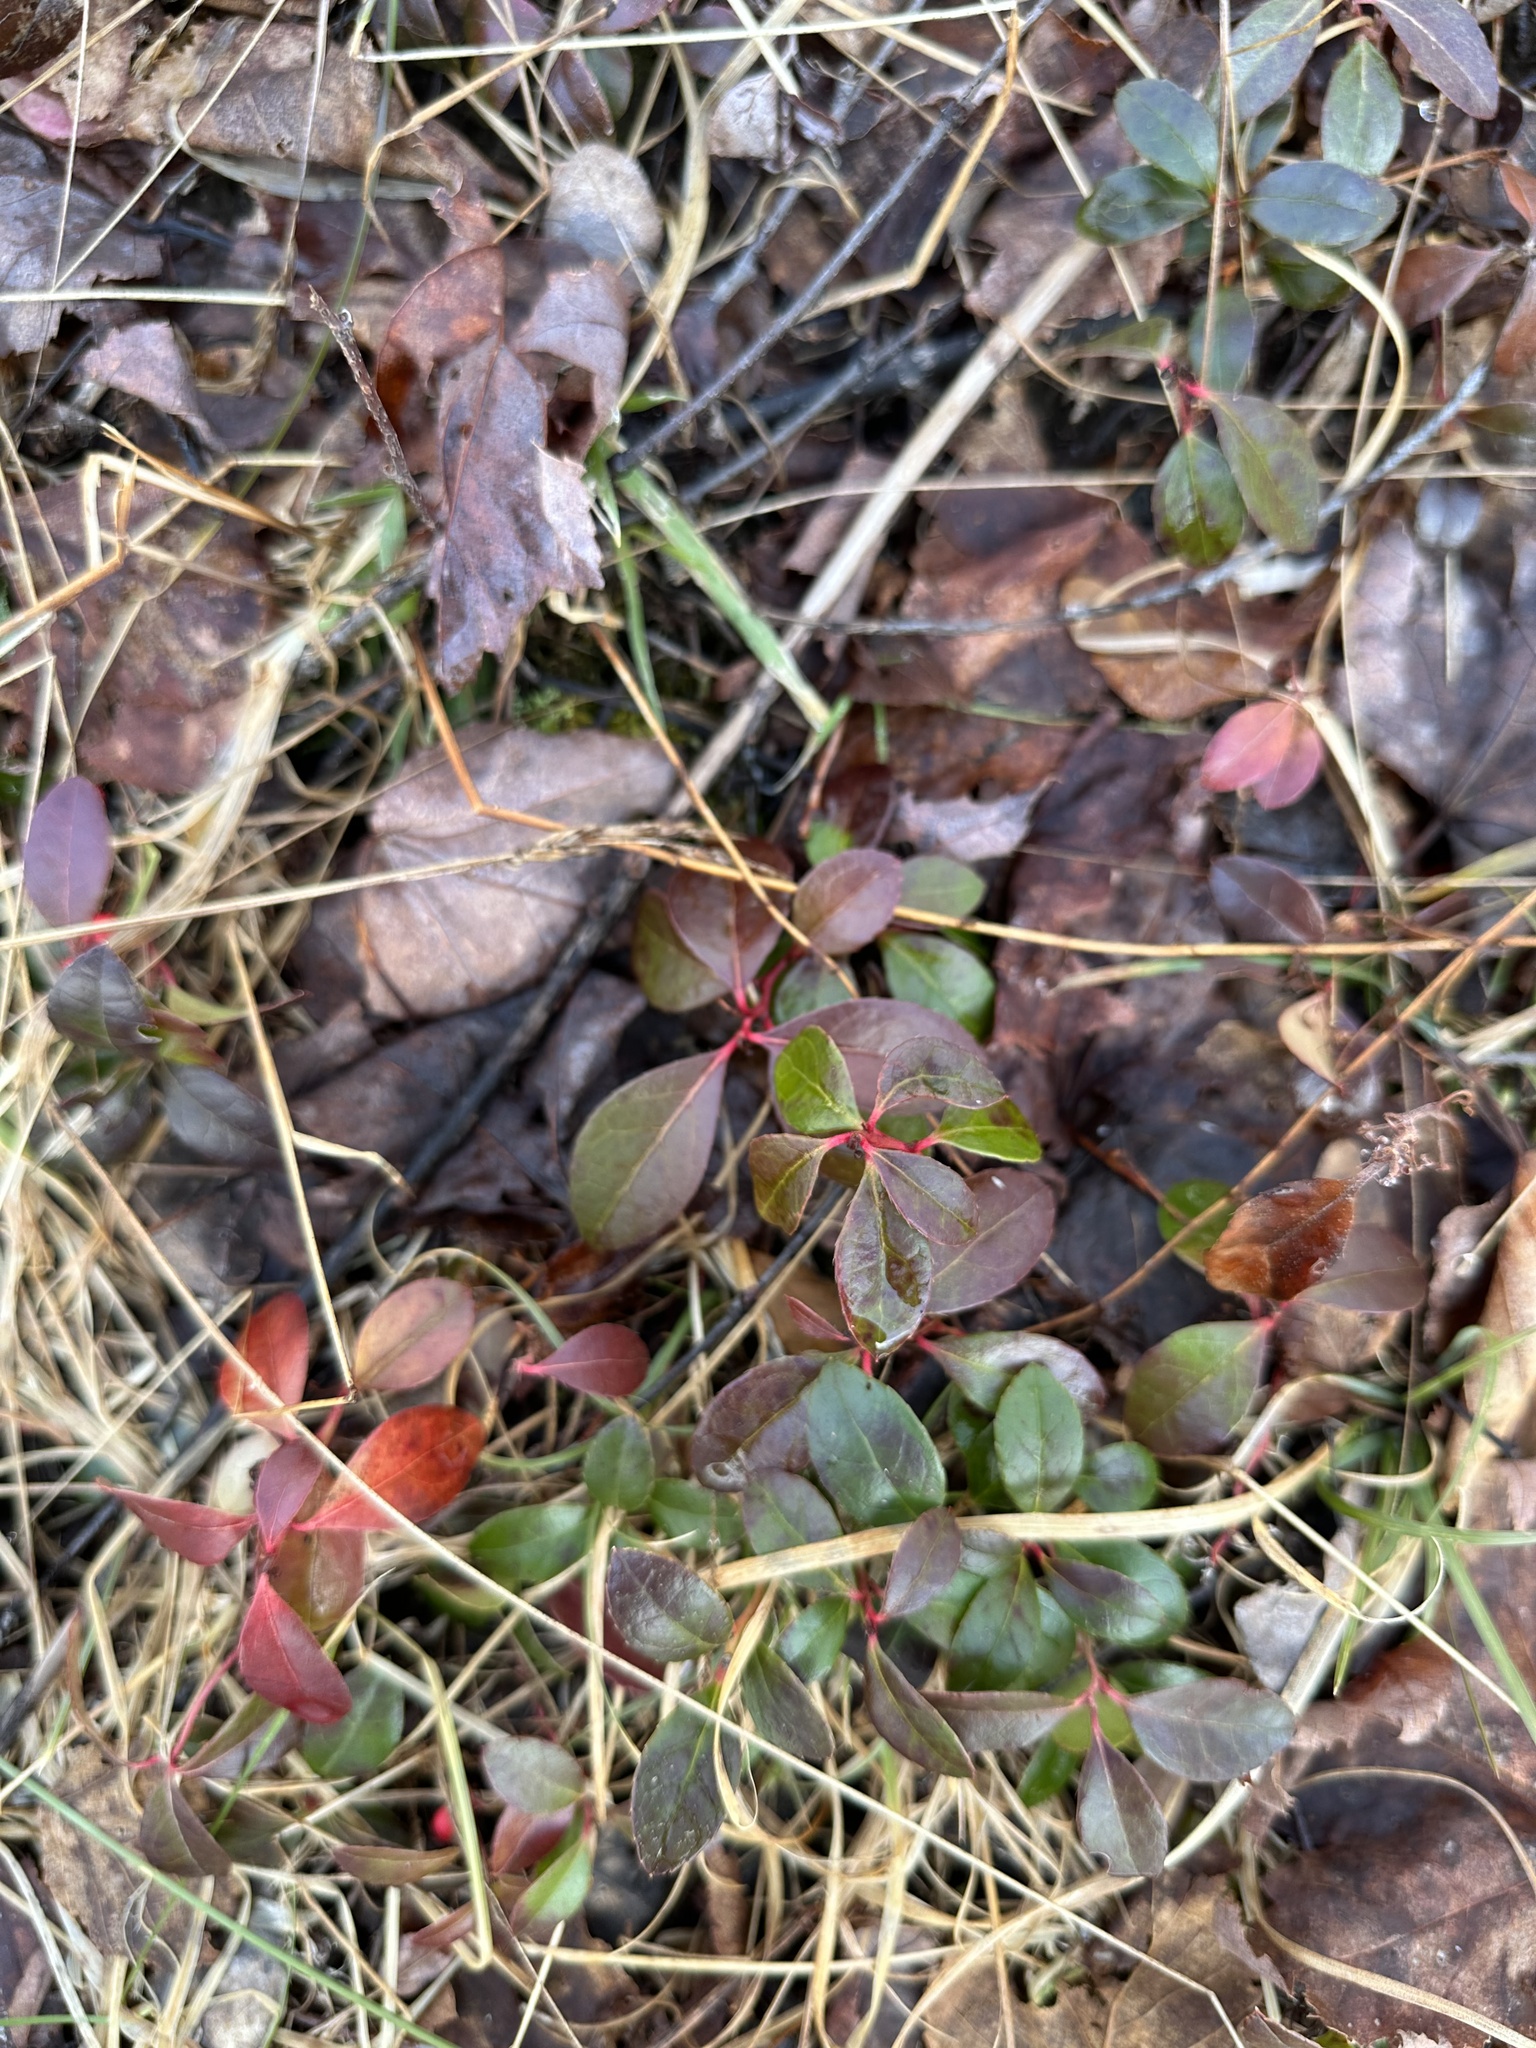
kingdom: Plantae
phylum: Tracheophyta
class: Magnoliopsida
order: Ericales
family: Ericaceae
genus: Gaultheria
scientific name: Gaultheria procumbens
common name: Checkerberry
